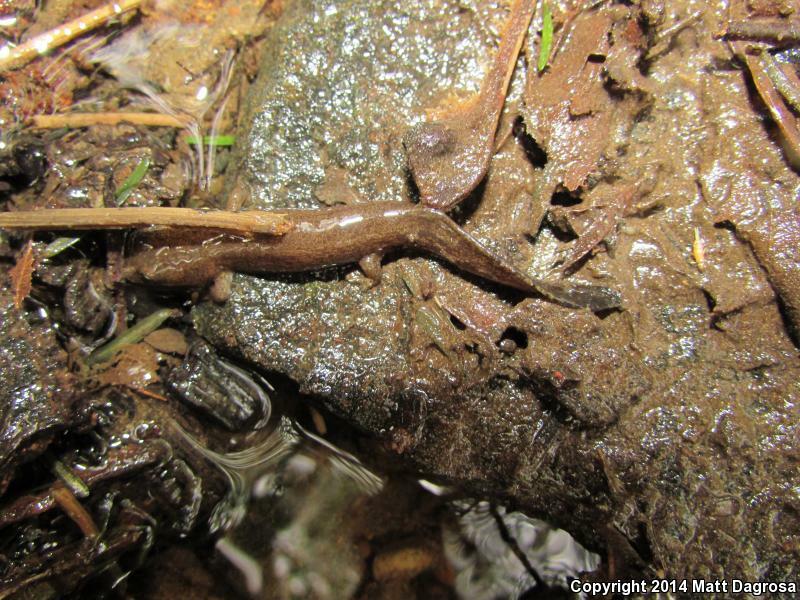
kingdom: Animalia
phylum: Chordata
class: Amphibia
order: Caudata
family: Ambystomatidae
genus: Dicamptodon
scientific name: Dicamptodon tenebrosus
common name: Coastal giant salamander
